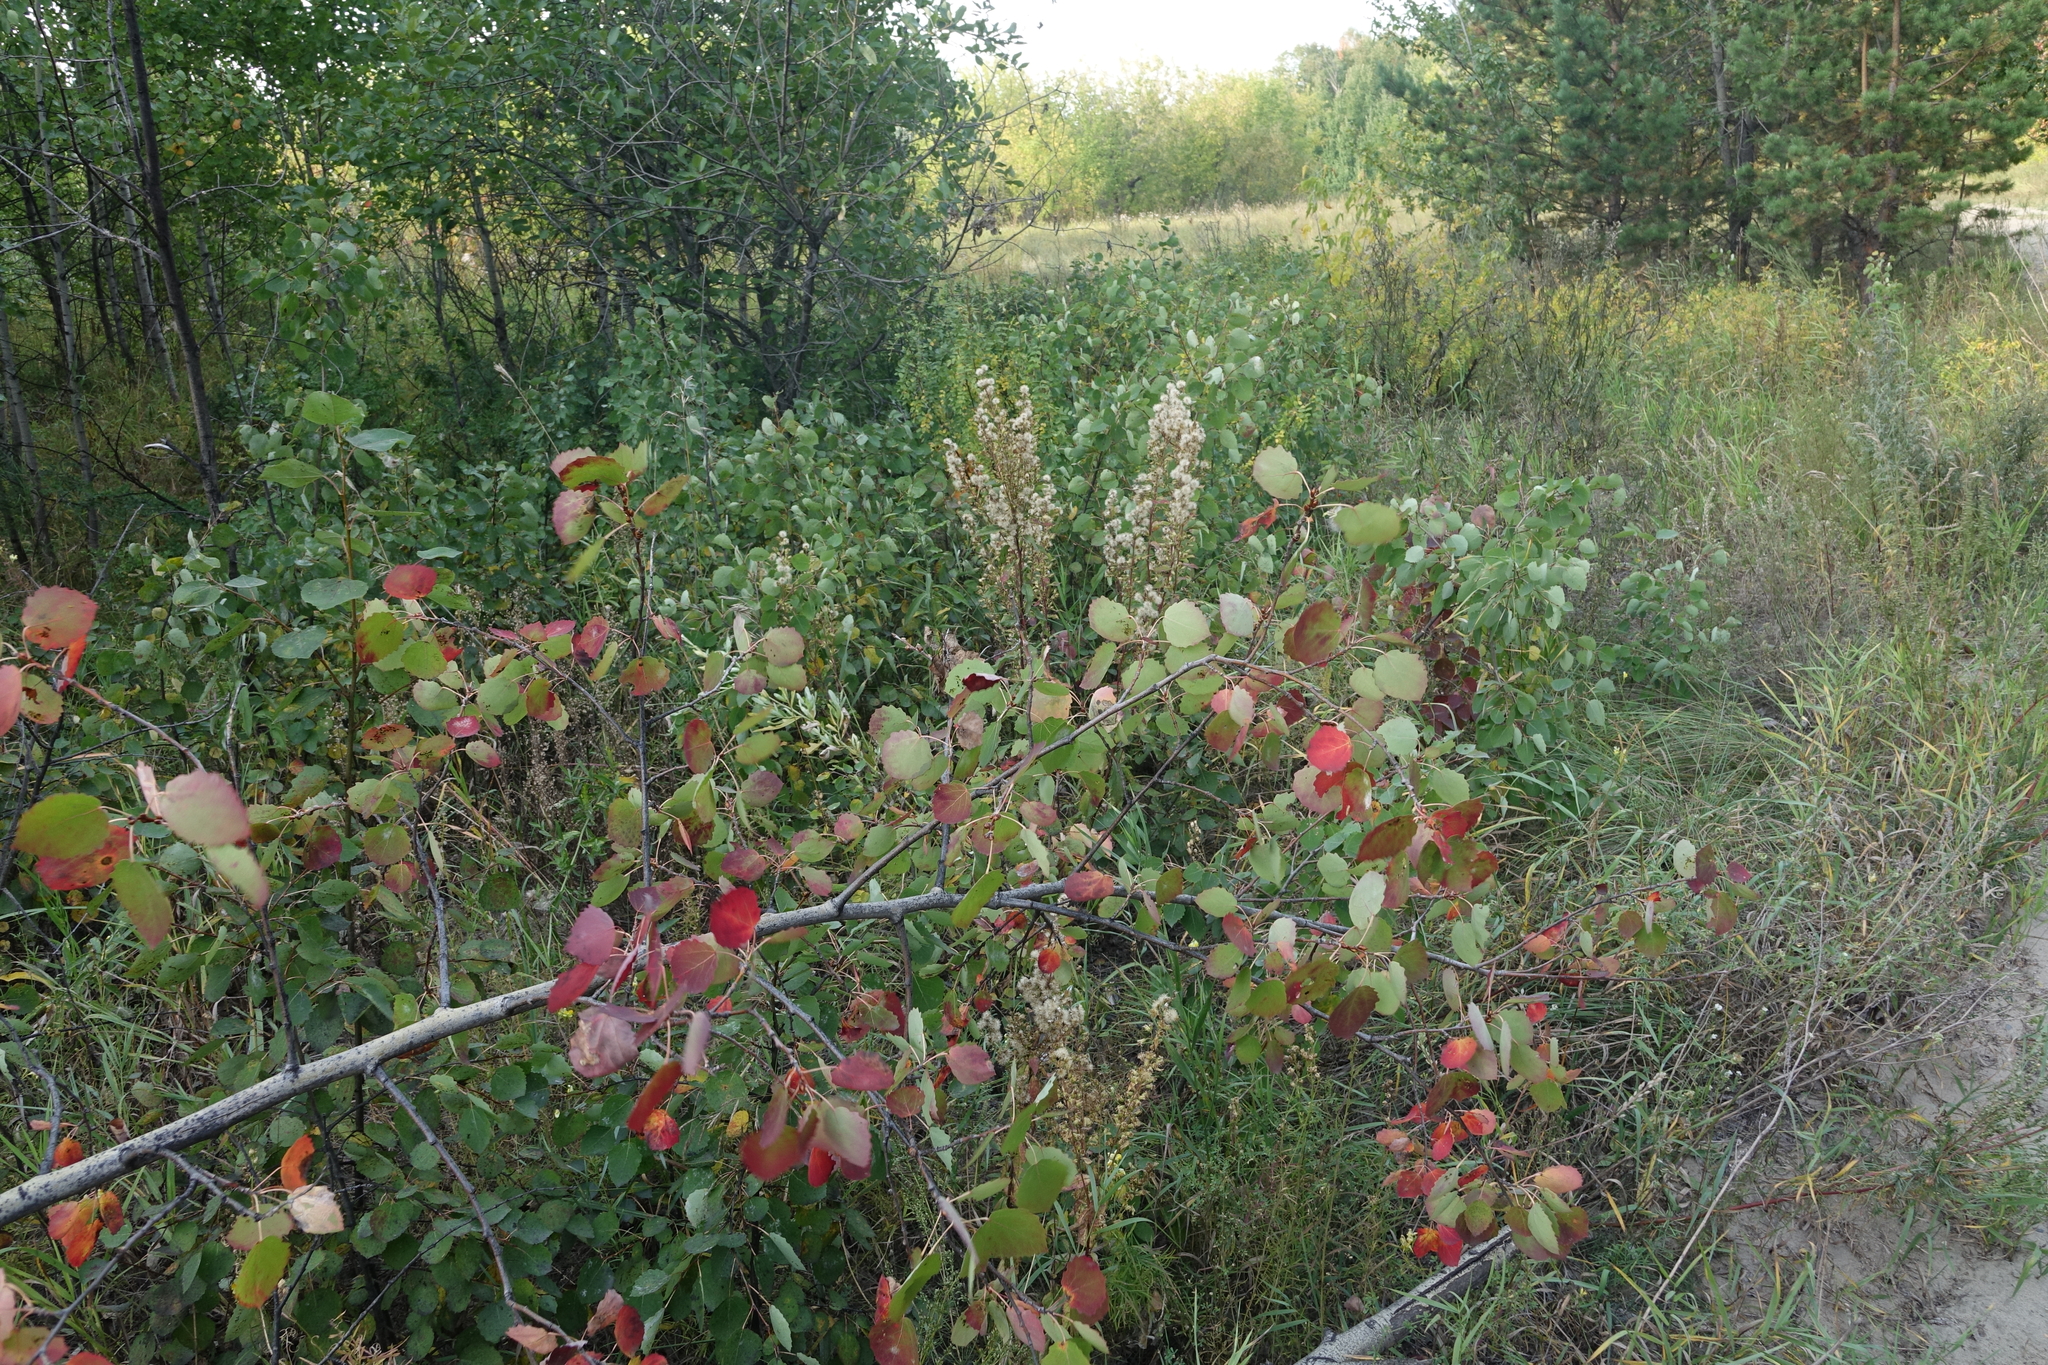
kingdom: Plantae
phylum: Tracheophyta
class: Magnoliopsida
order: Malpighiales
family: Salicaceae
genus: Populus
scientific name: Populus tremula
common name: European aspen
